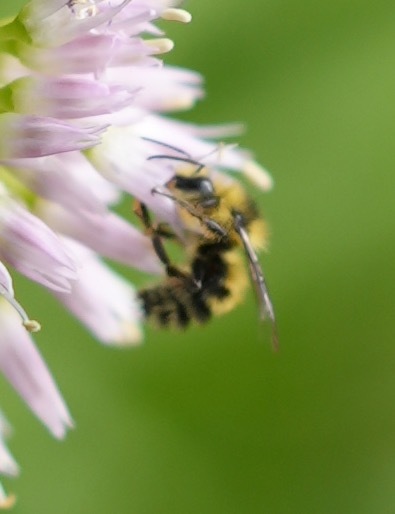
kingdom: Animalia
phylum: Arthropoda
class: Insecta
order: Hymenoptera
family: Apidae
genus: Bombus
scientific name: Bombus flavifrons
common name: Yellow head bumble bee
